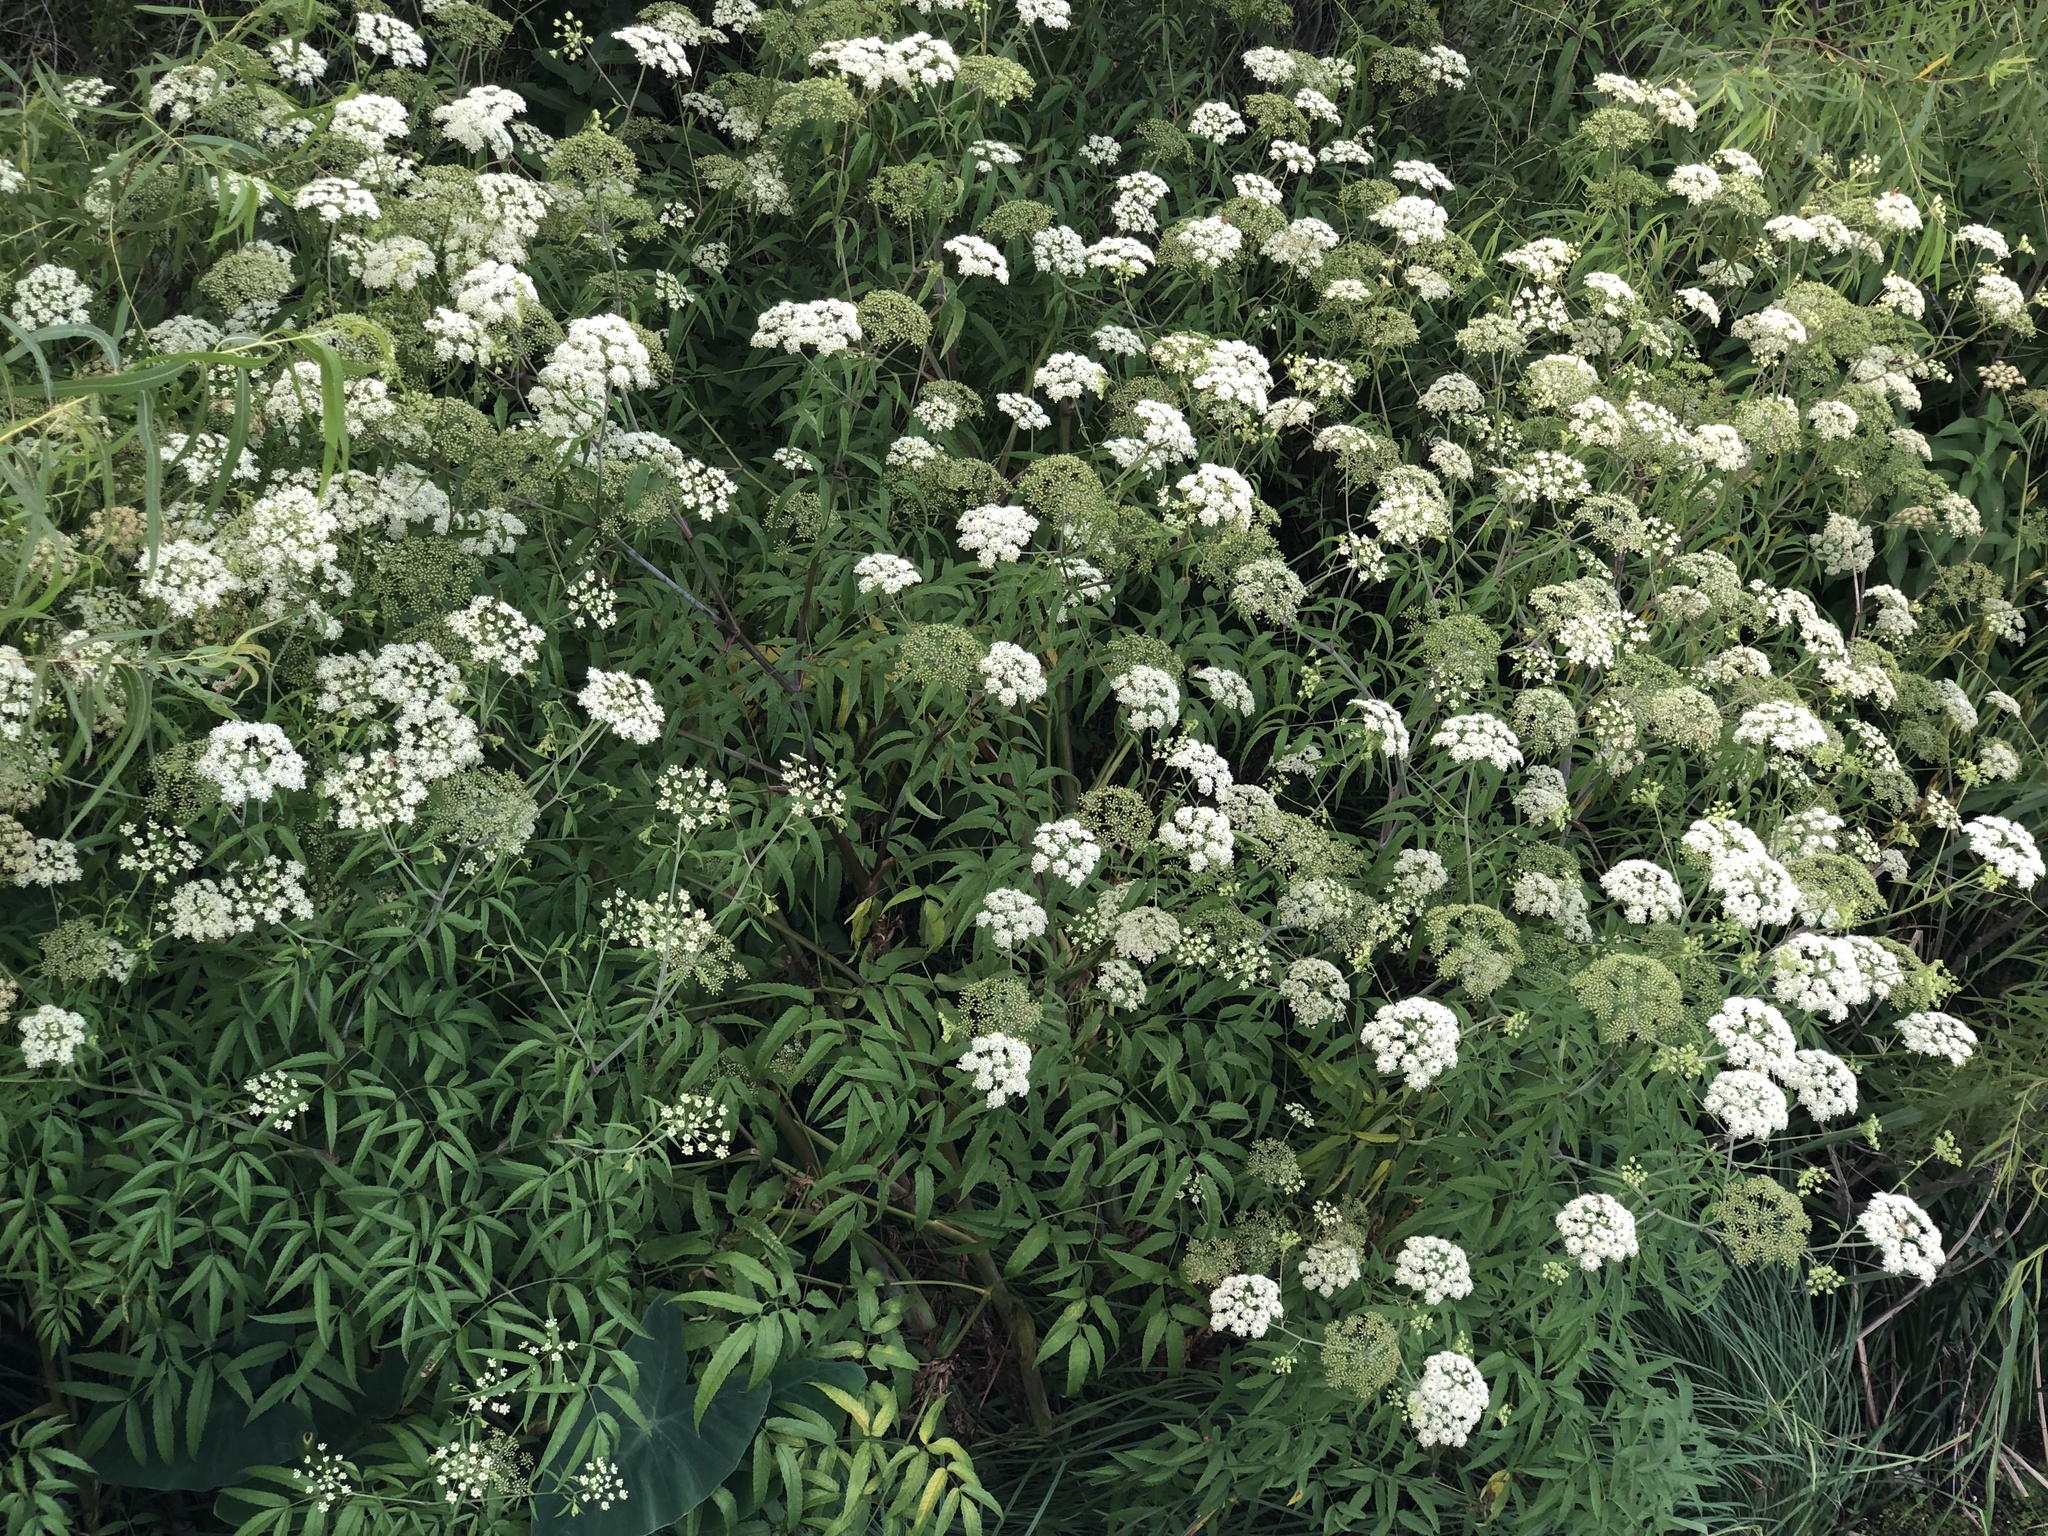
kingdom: Plantae
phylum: Tracheophyta
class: Magnoliopsida
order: Apiales
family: Apiaceae
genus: Cicuta
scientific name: Cicuta maculata
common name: Spotted cowbane
